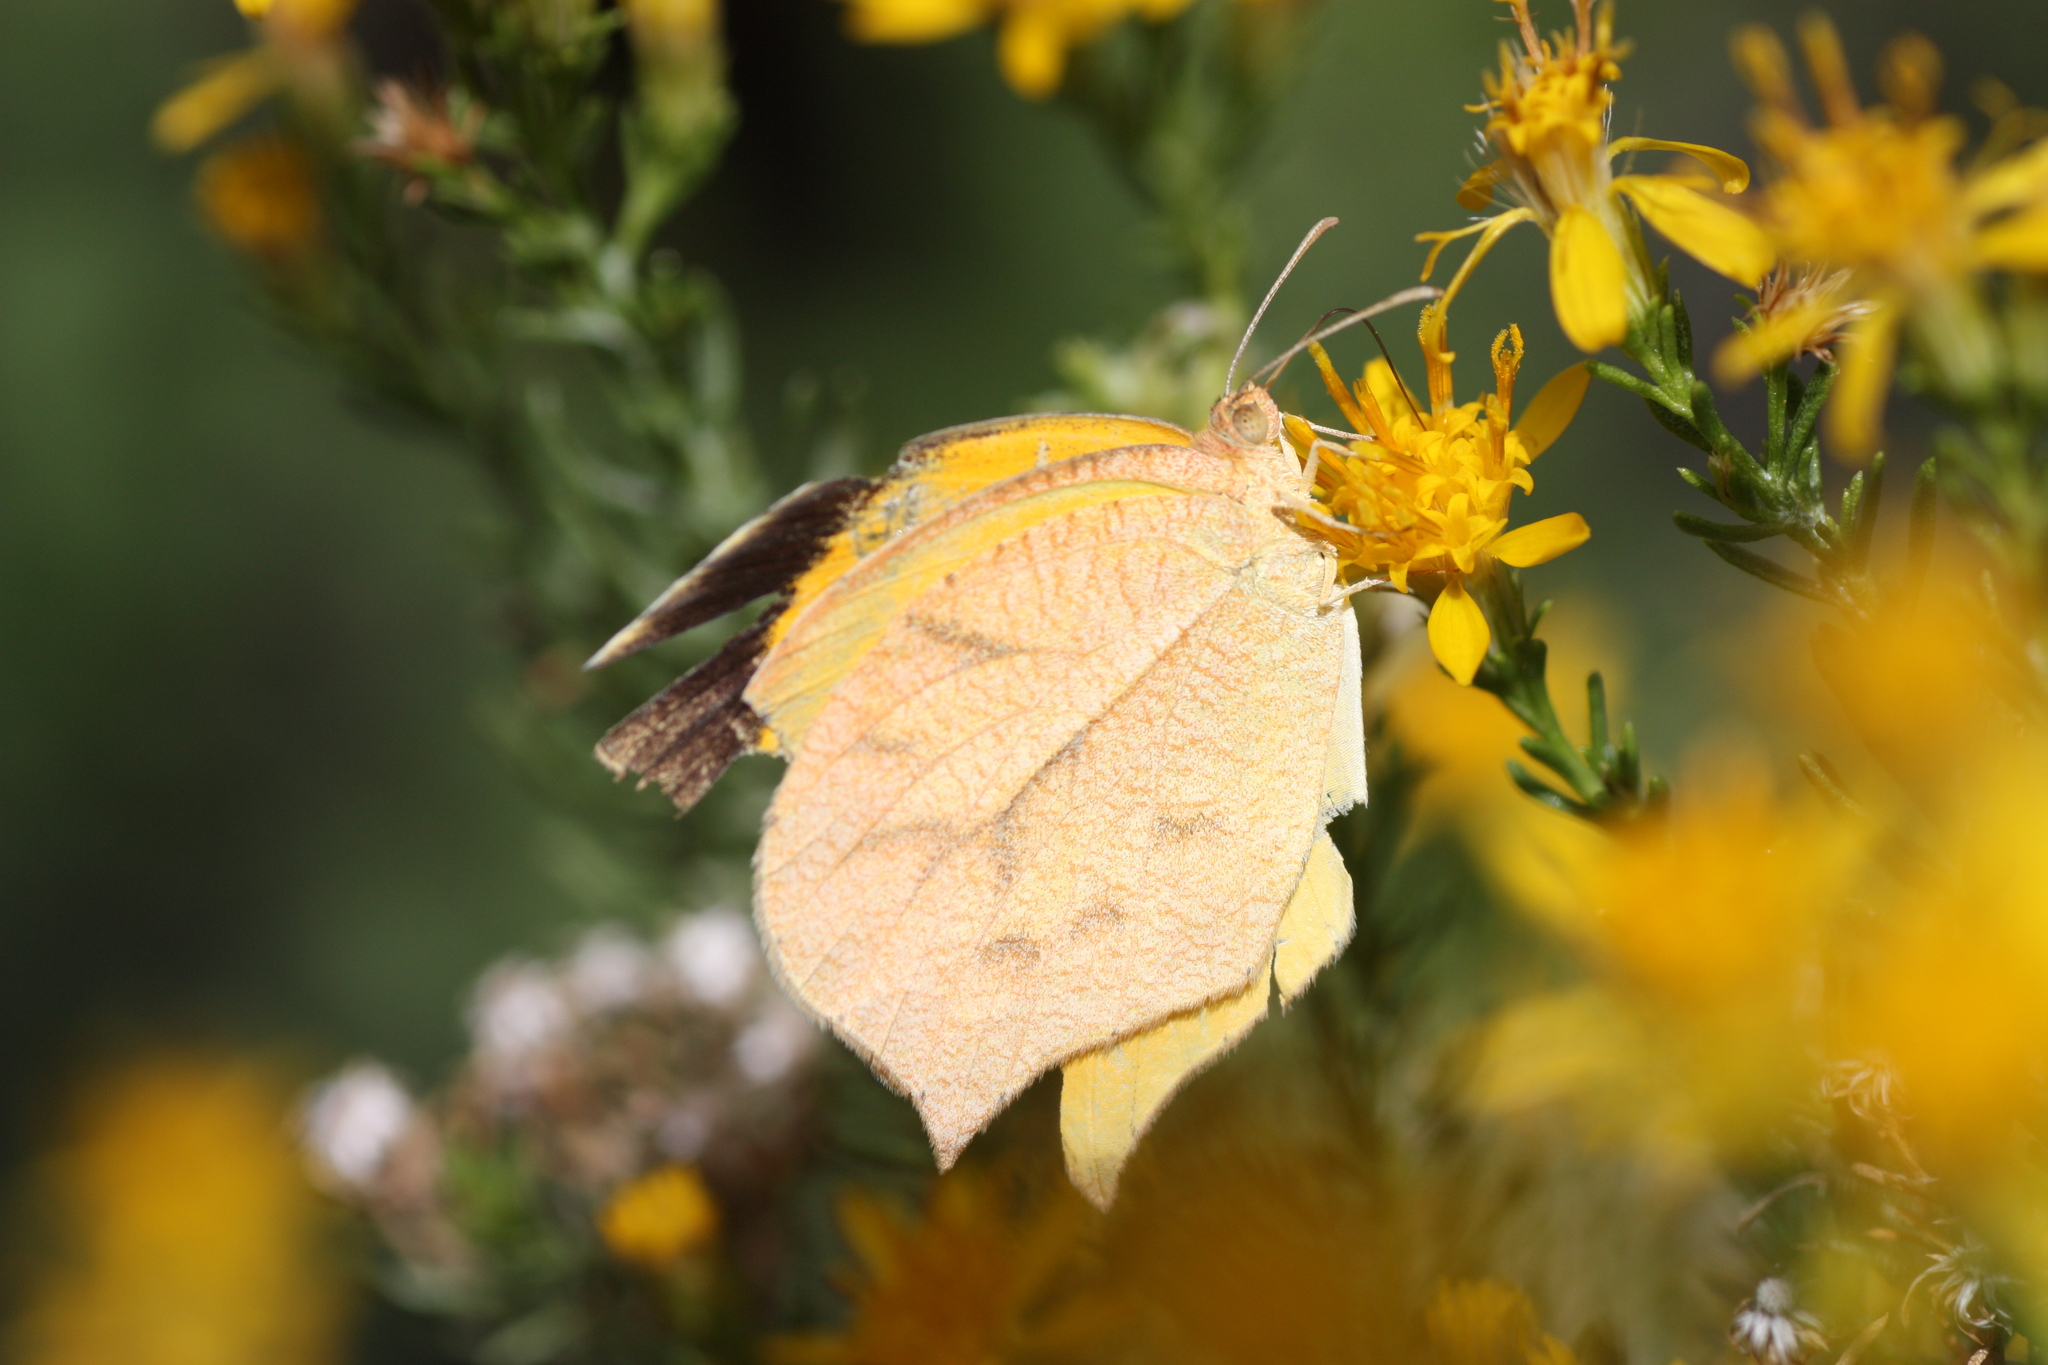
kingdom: Animalia
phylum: Arthropoda
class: Insecta
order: Lepidoptera
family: Pieridae
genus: Pyrisitia
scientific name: Pyrisitia proterpia
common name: Tailed orange
